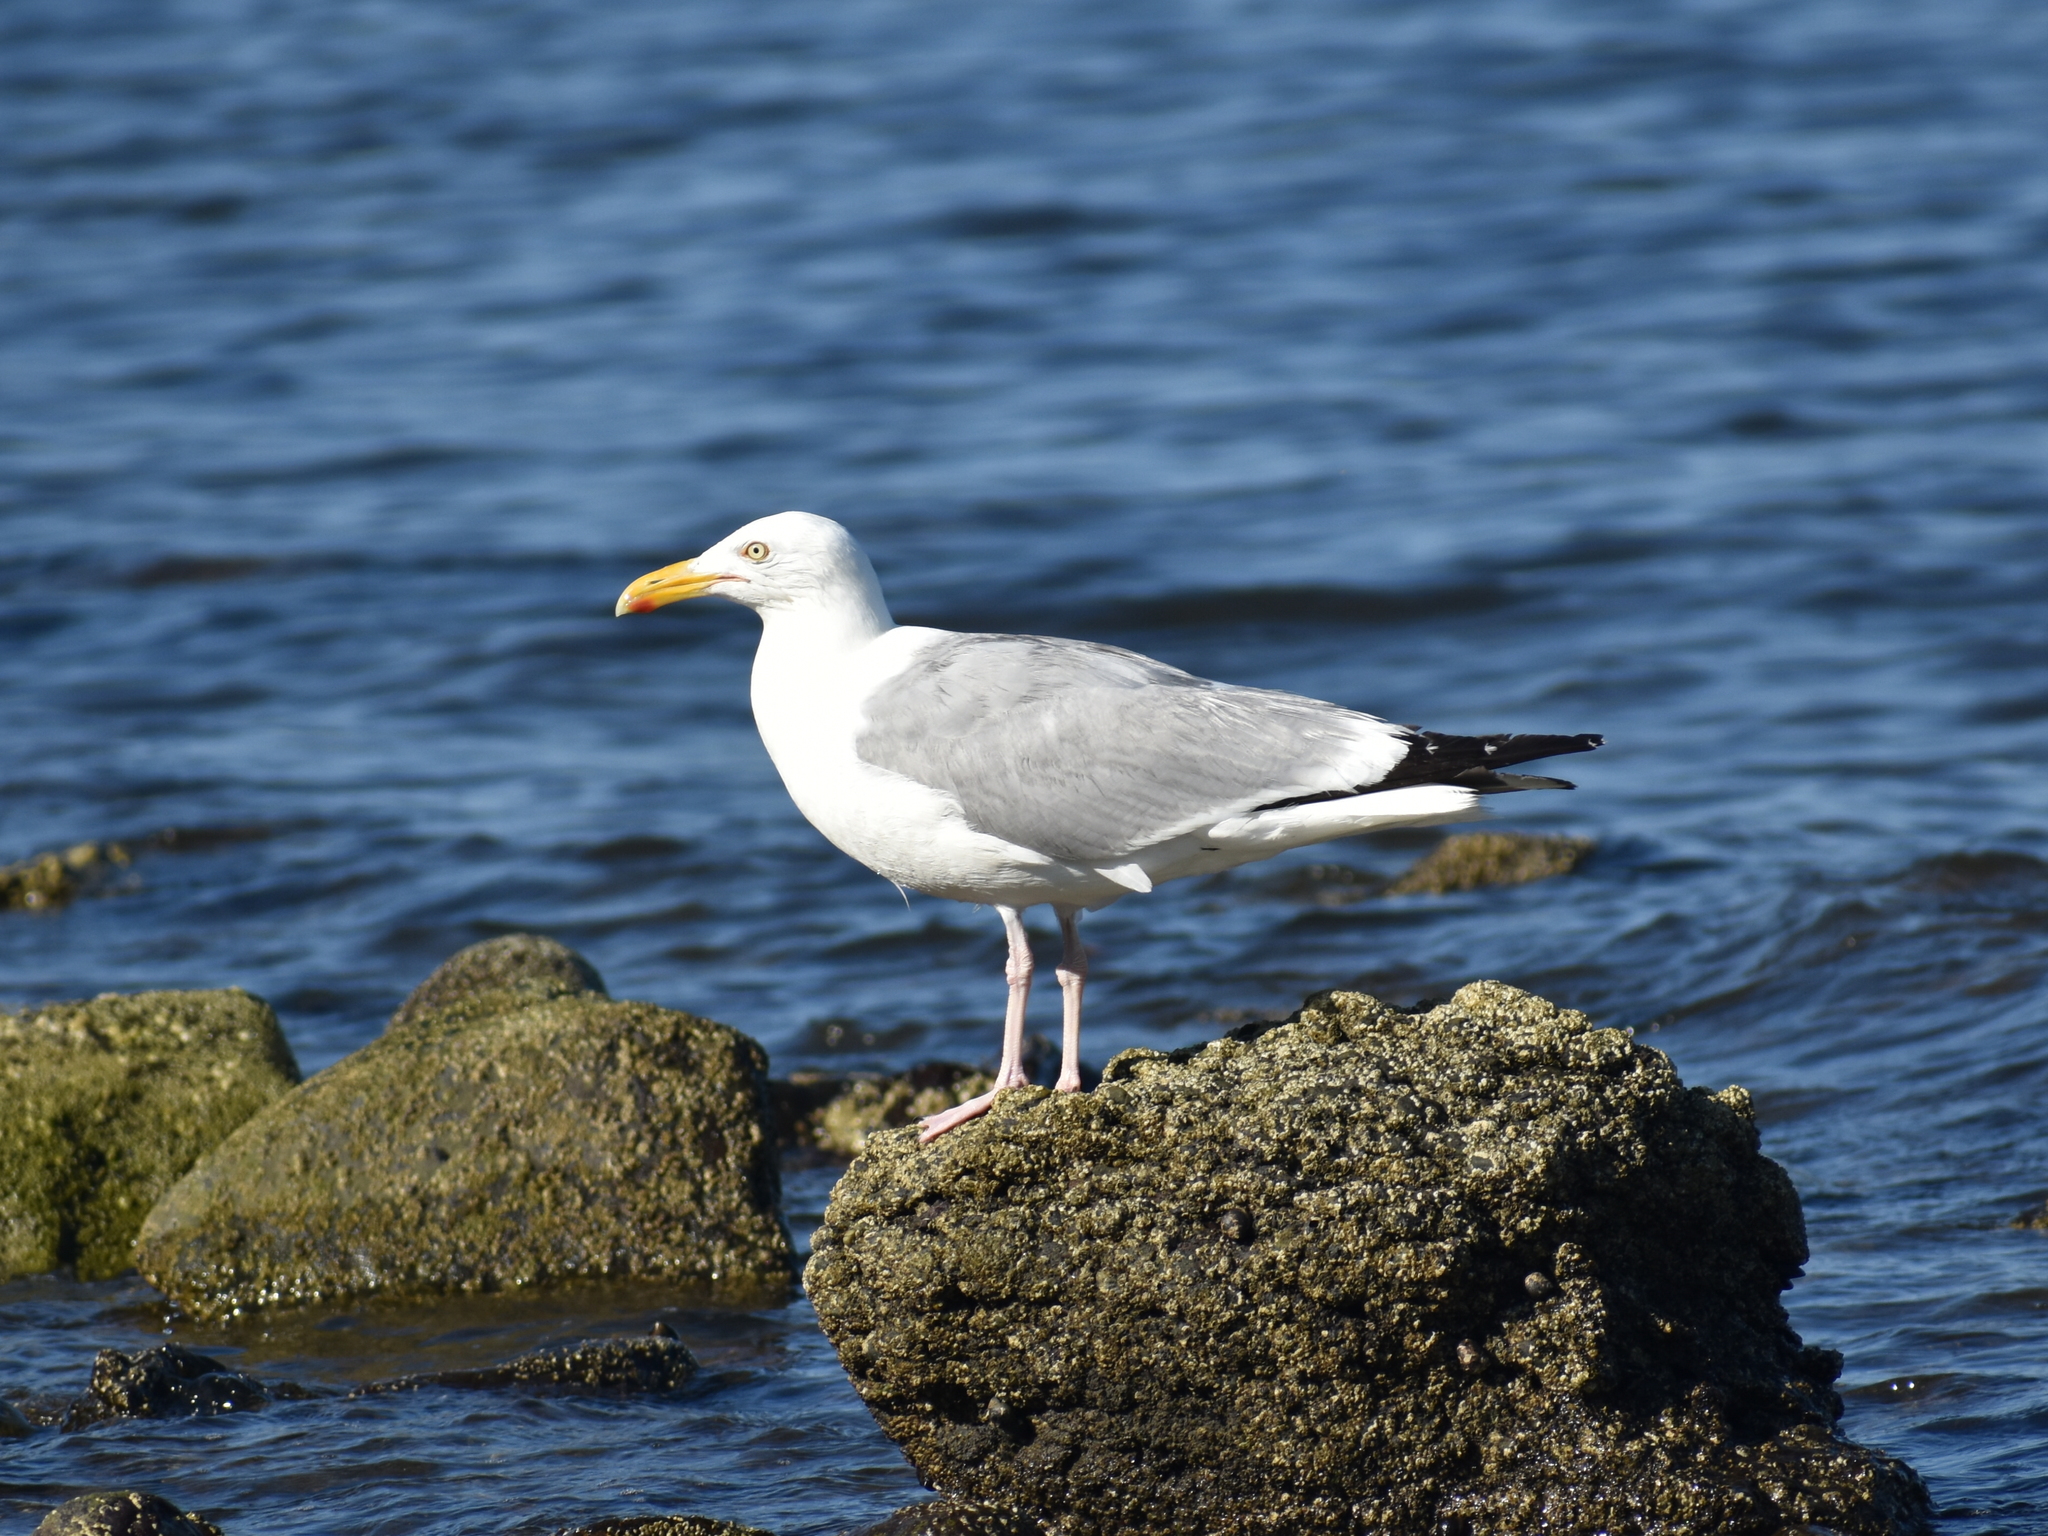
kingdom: Animalia
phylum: Chordata
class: Aves
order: Charadriiformes
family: Laridae
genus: Larus
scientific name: Larus argentatus
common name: Herring gull
